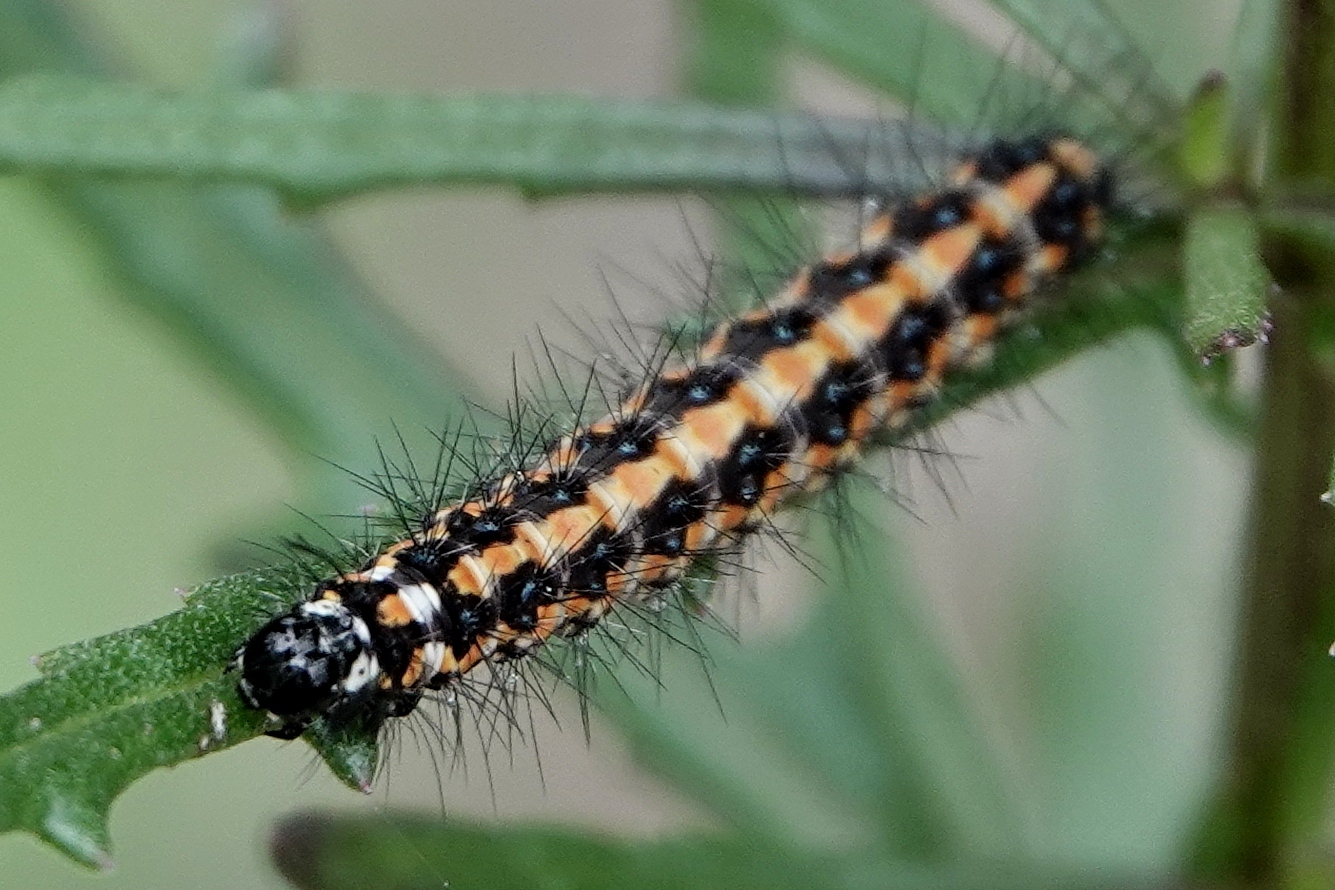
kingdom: Animalia
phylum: Arthropoda
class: Insecta
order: Lepidoptera
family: Erebidae
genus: Nyctemera
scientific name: Nyctemera amicus
